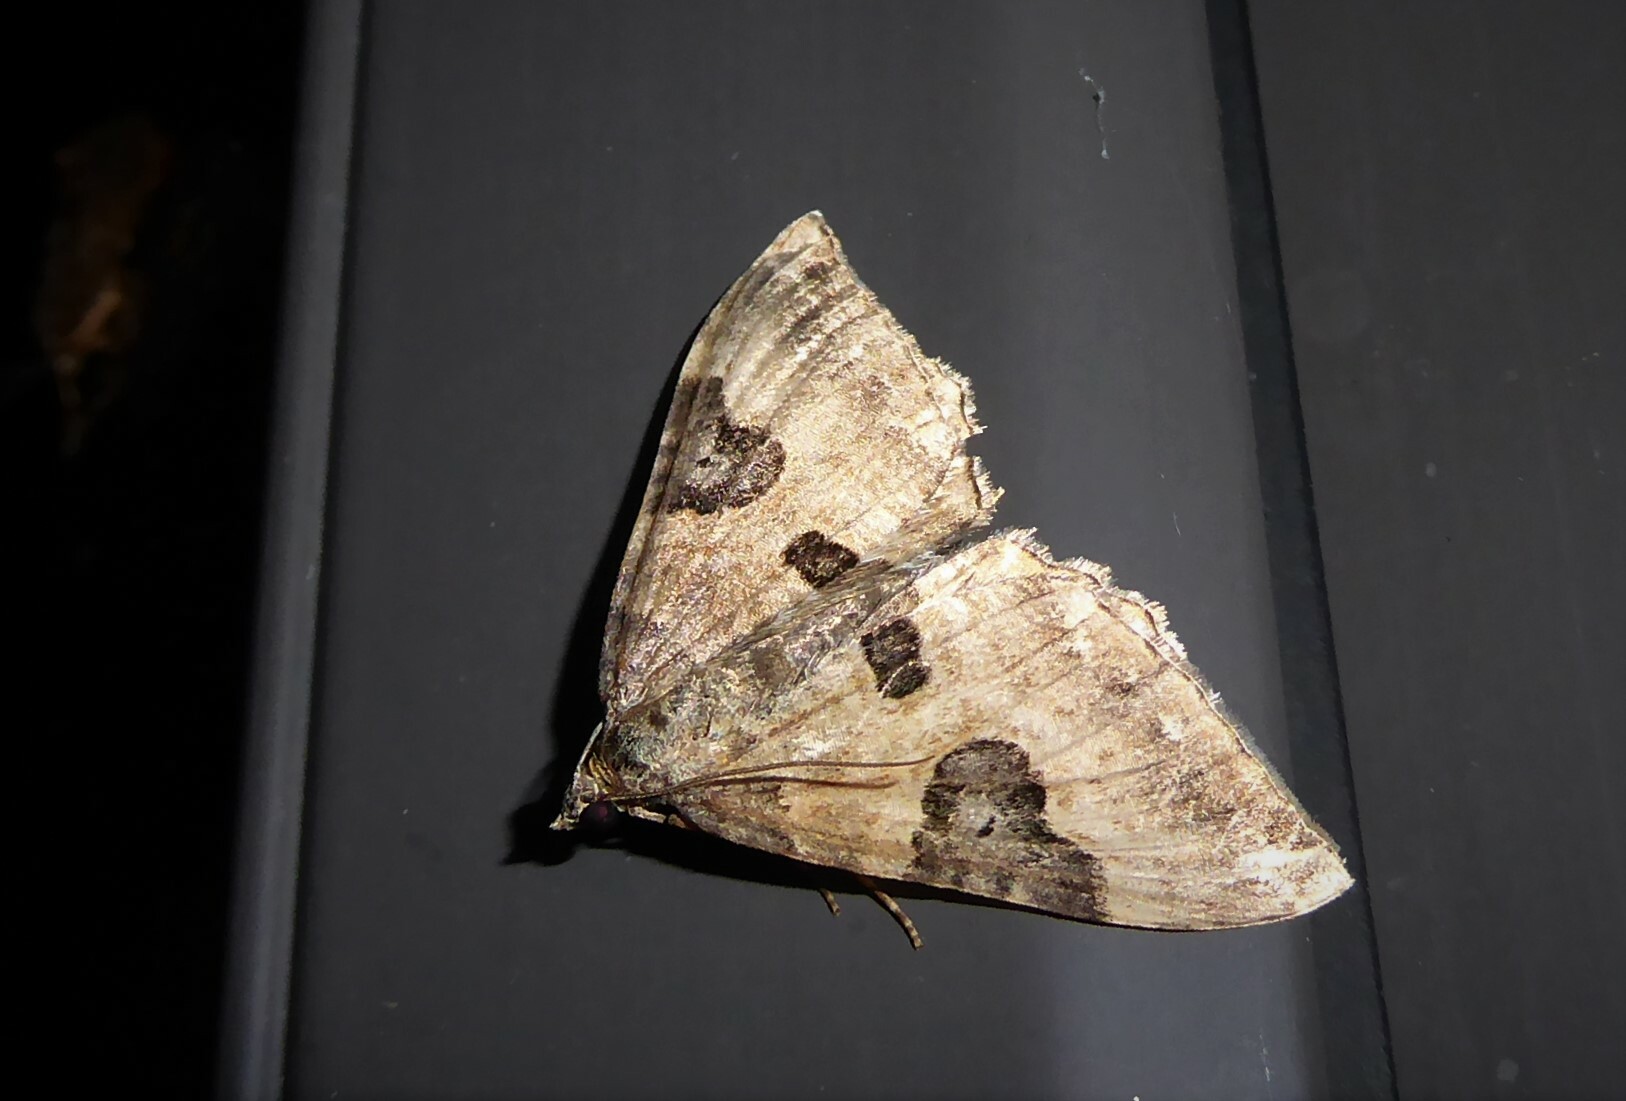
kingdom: Animalia
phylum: Arthropoda
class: Insecta
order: Lepidoptera
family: Geometridae
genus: Hydriomena
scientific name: Hydriomena deltoidata
